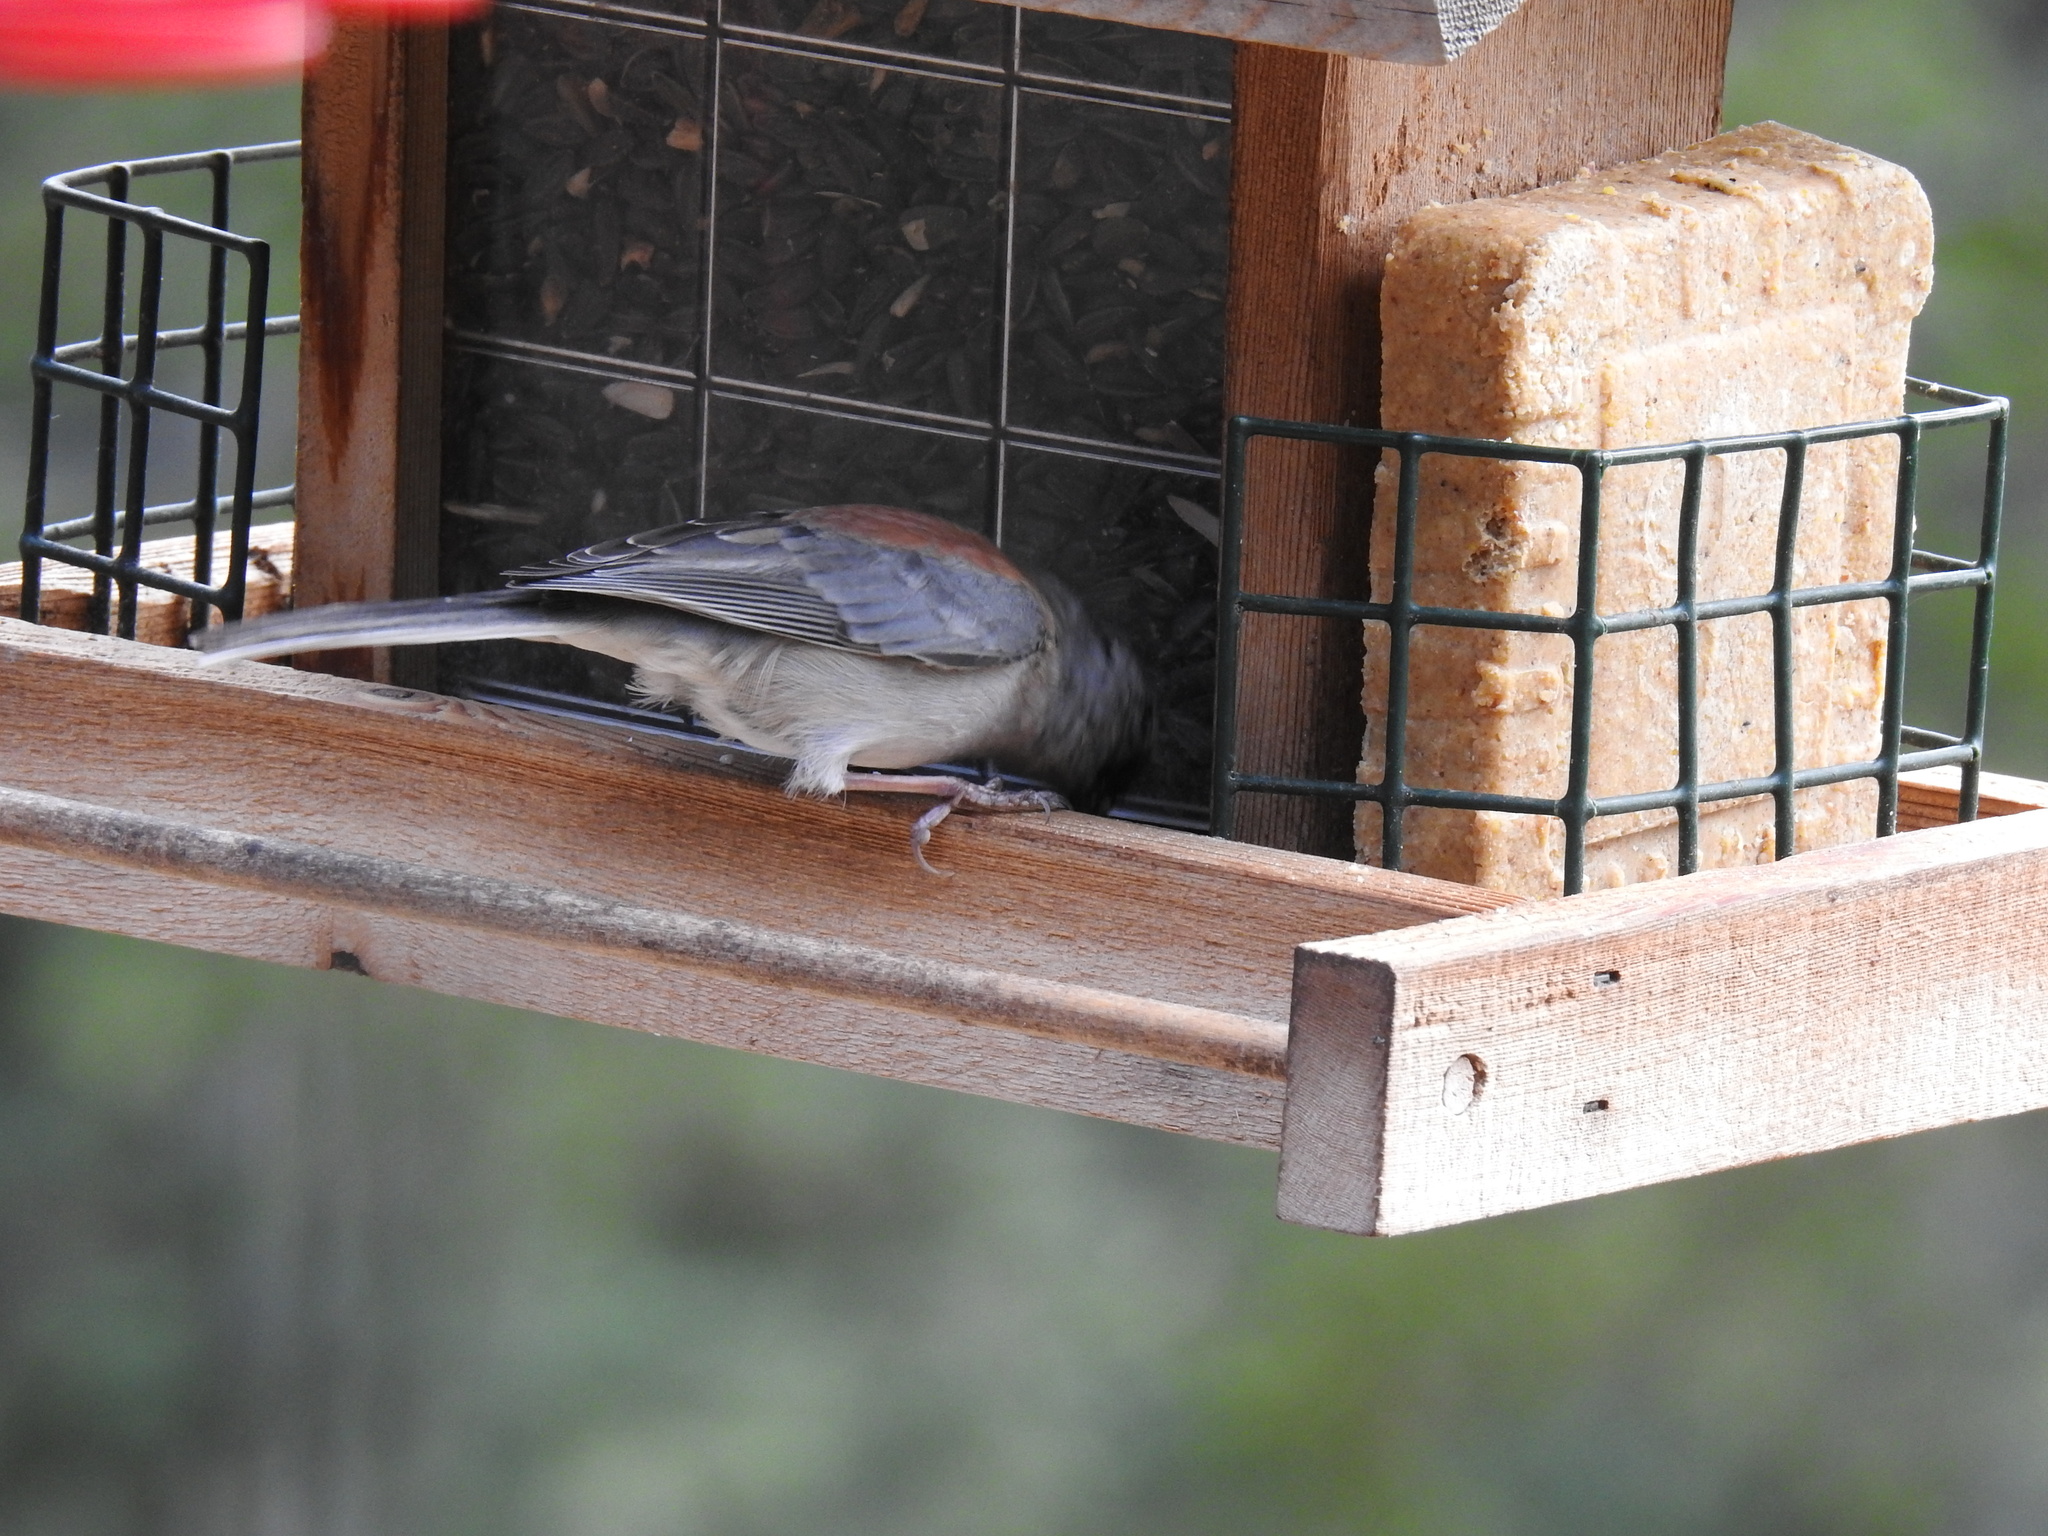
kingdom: Animalia
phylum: Chordata
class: Aves
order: Passeriformes
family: Passerellidae
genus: Junco
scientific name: Junco hyemalis
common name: Dark-eyed junco
